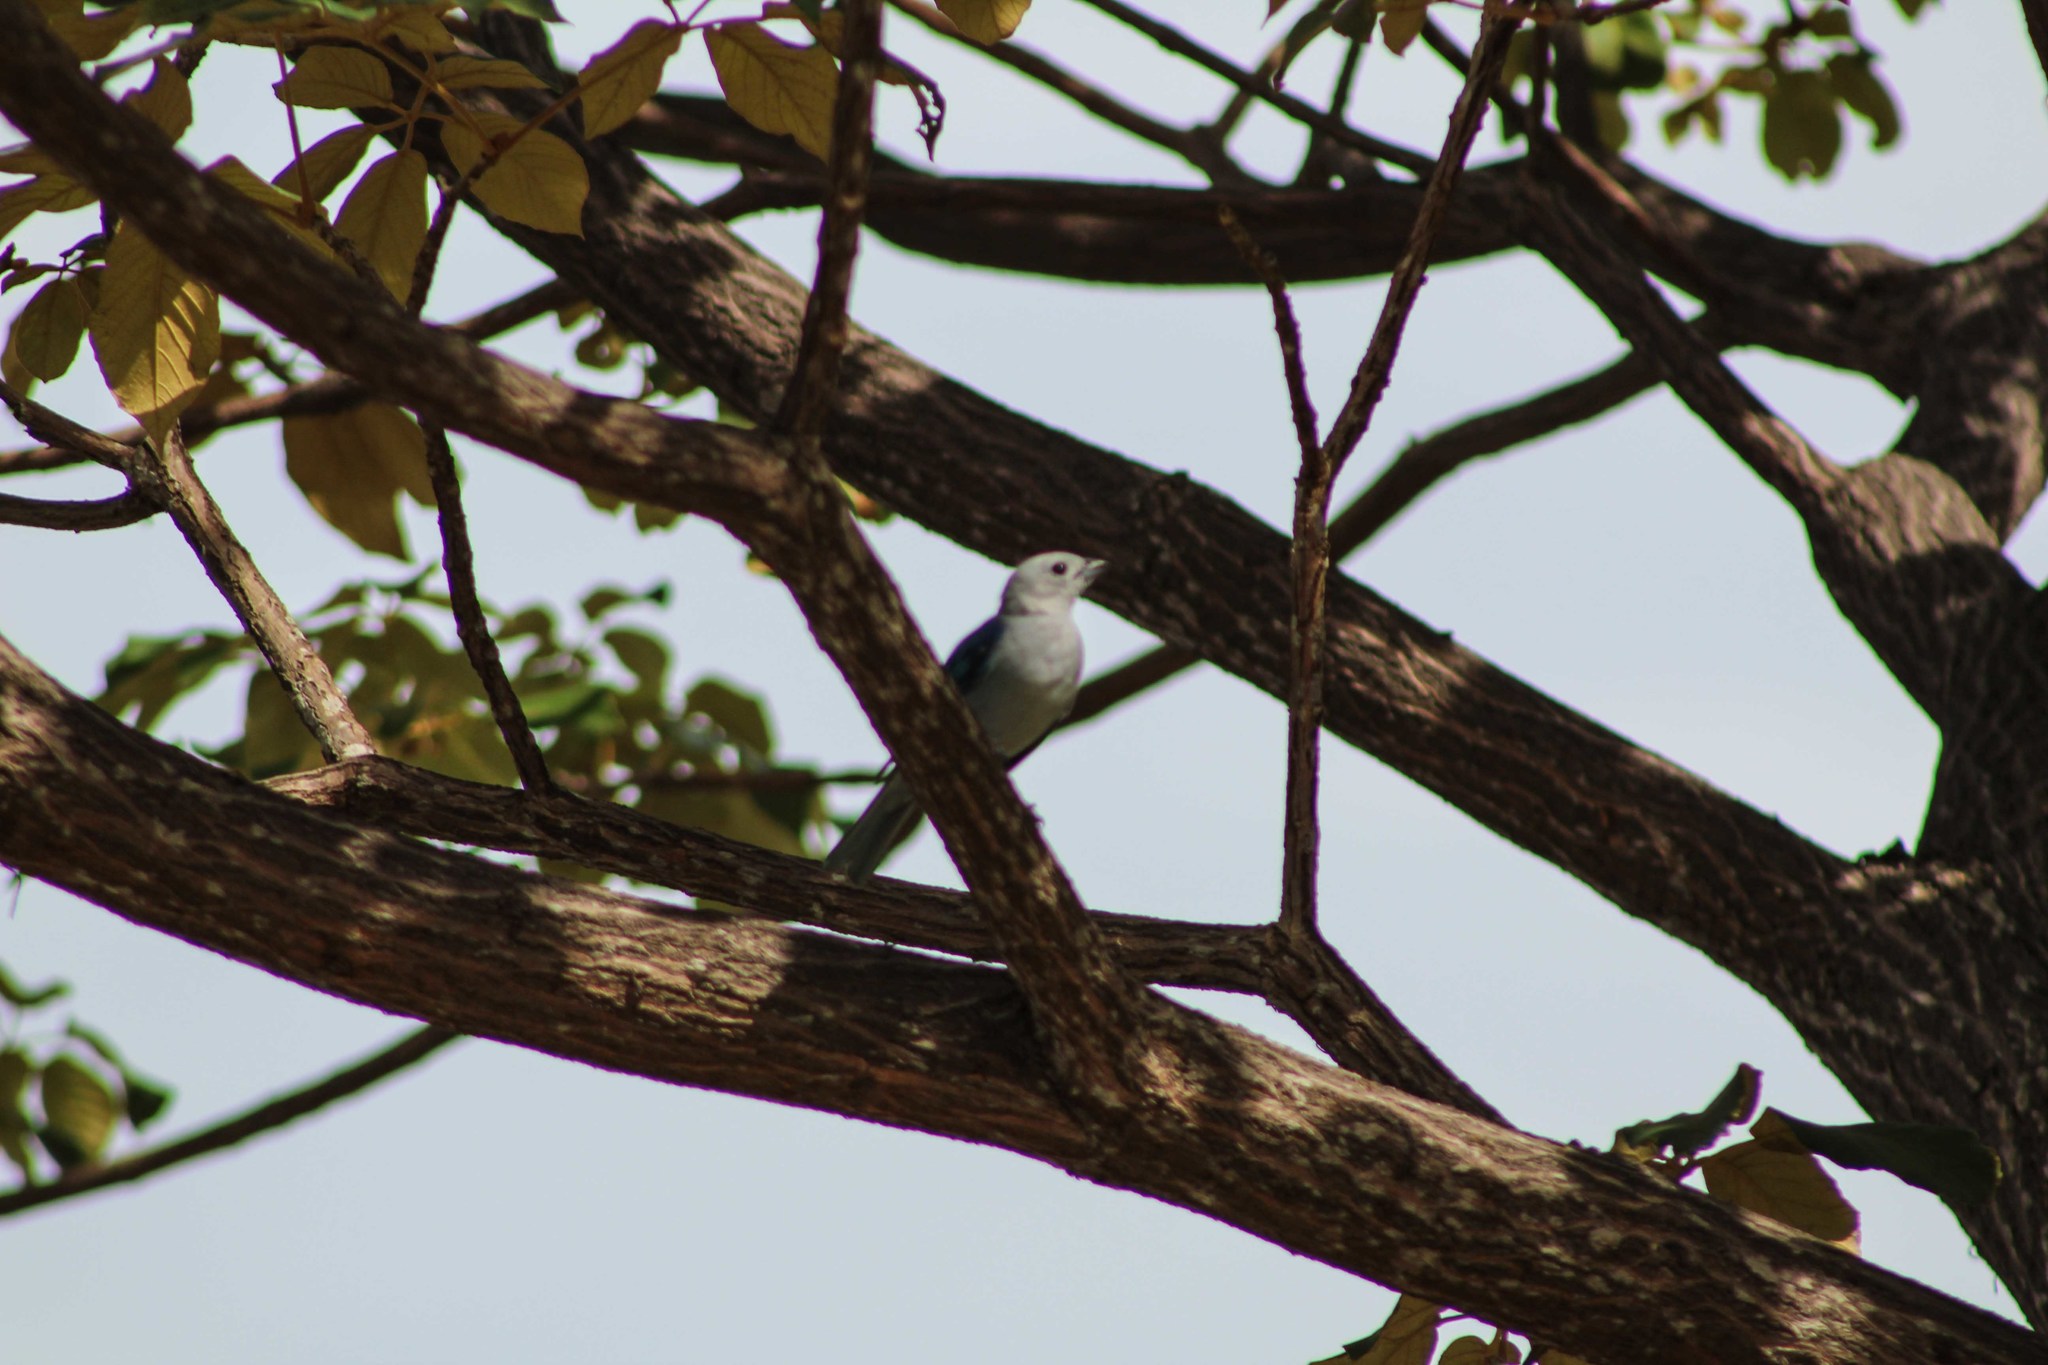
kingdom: Animalia
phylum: Chordata
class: Aves
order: Passeriformes
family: Thraupidae
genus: Thraupis
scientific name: Thraupis episcopus
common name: Blue-grey tanager
